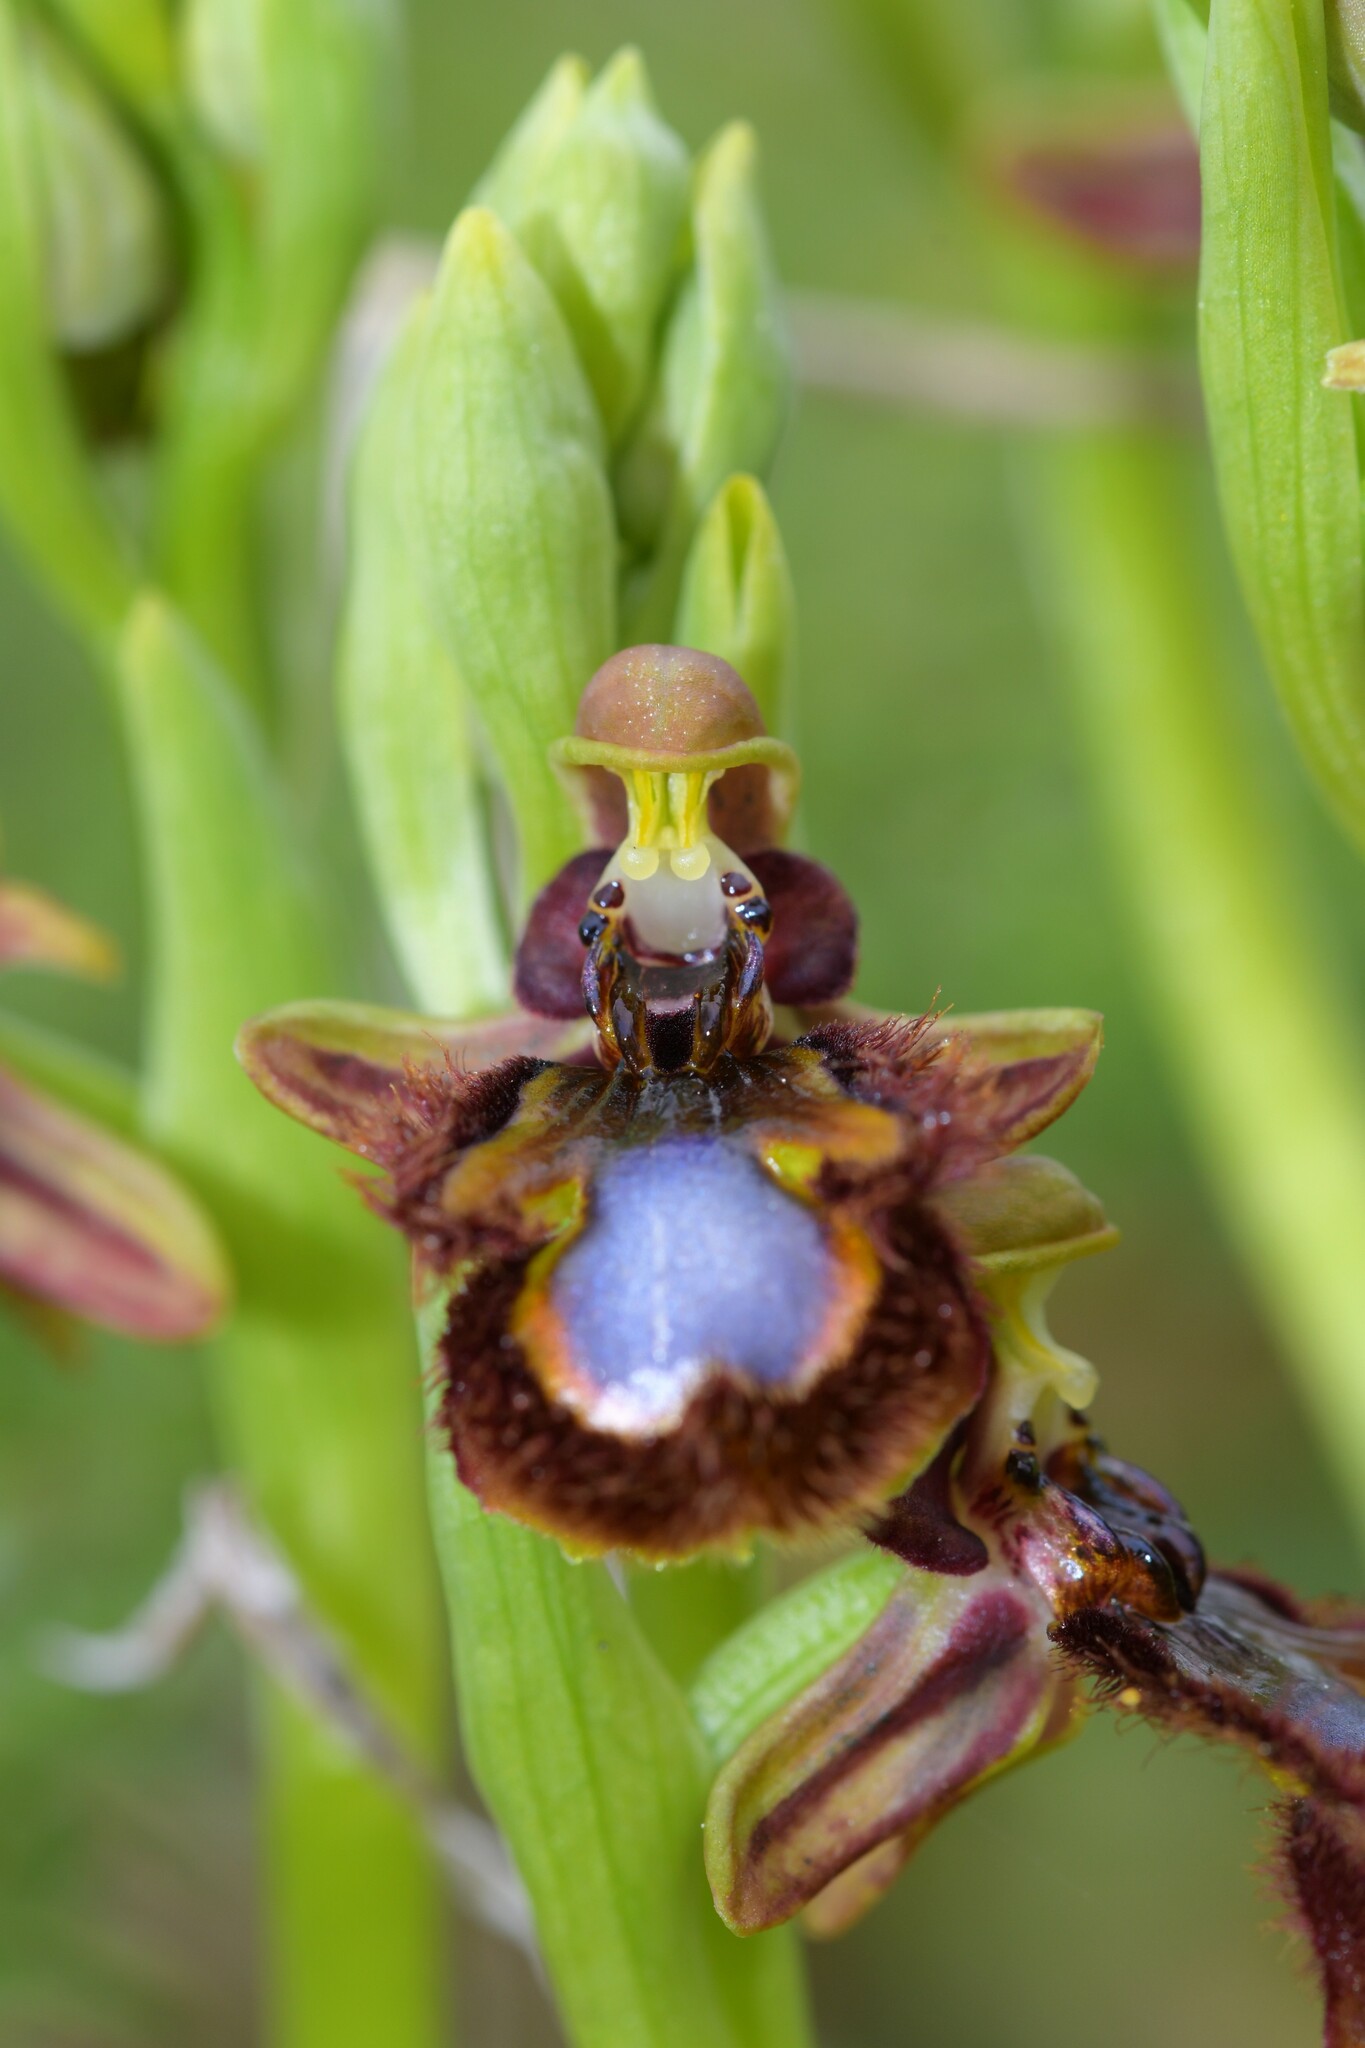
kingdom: Plantae
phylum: Tracheophyta
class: Liliopsida
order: Asparagales
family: Orchidaceae
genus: Ophrys
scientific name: Ophrys speculum
